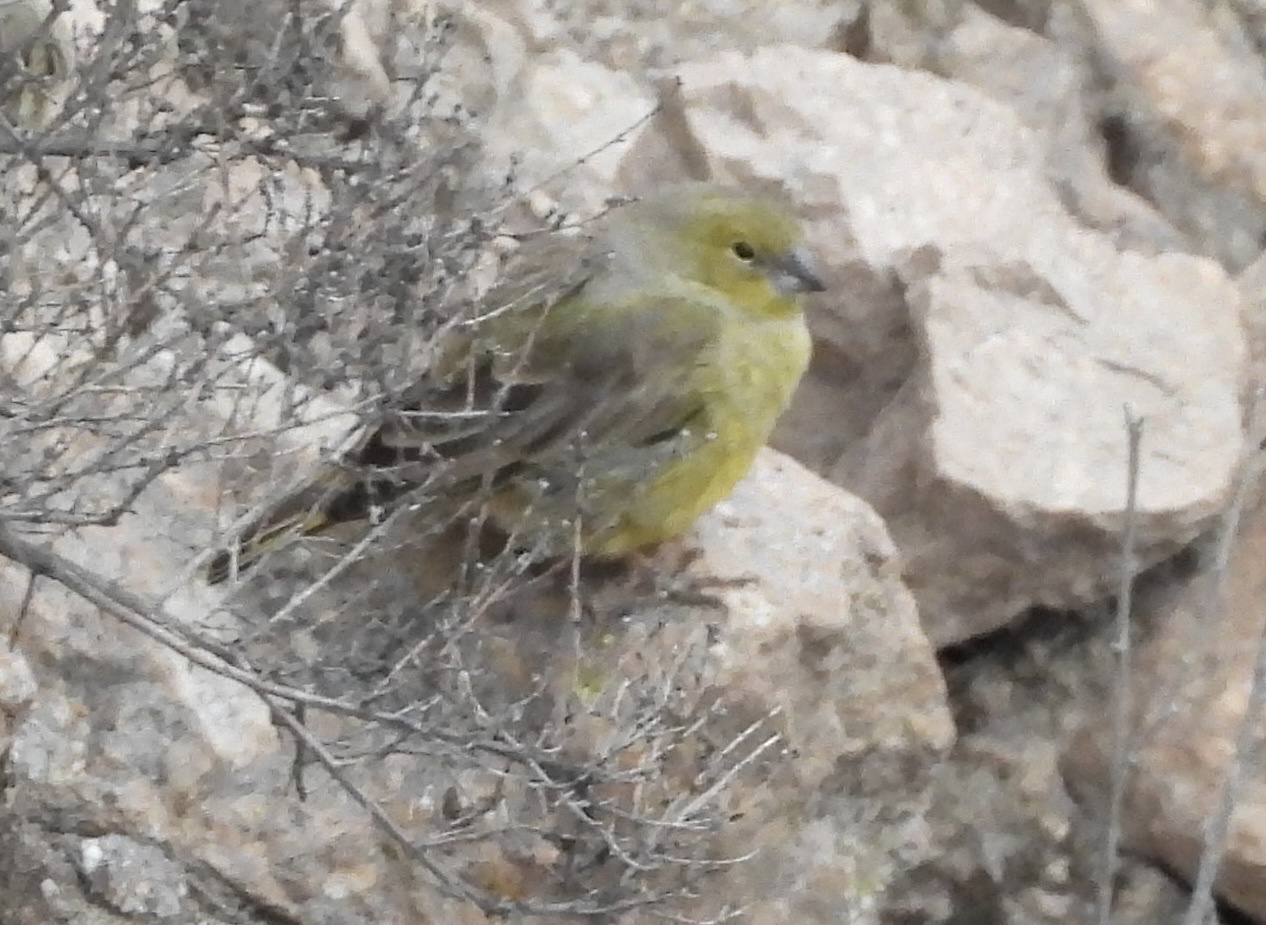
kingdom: Animalia
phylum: Chordata
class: Aves
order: Passeriformes
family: Thraupidae
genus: Sicalis
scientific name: Sicalis olivascens
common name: Greenish yellow finch
